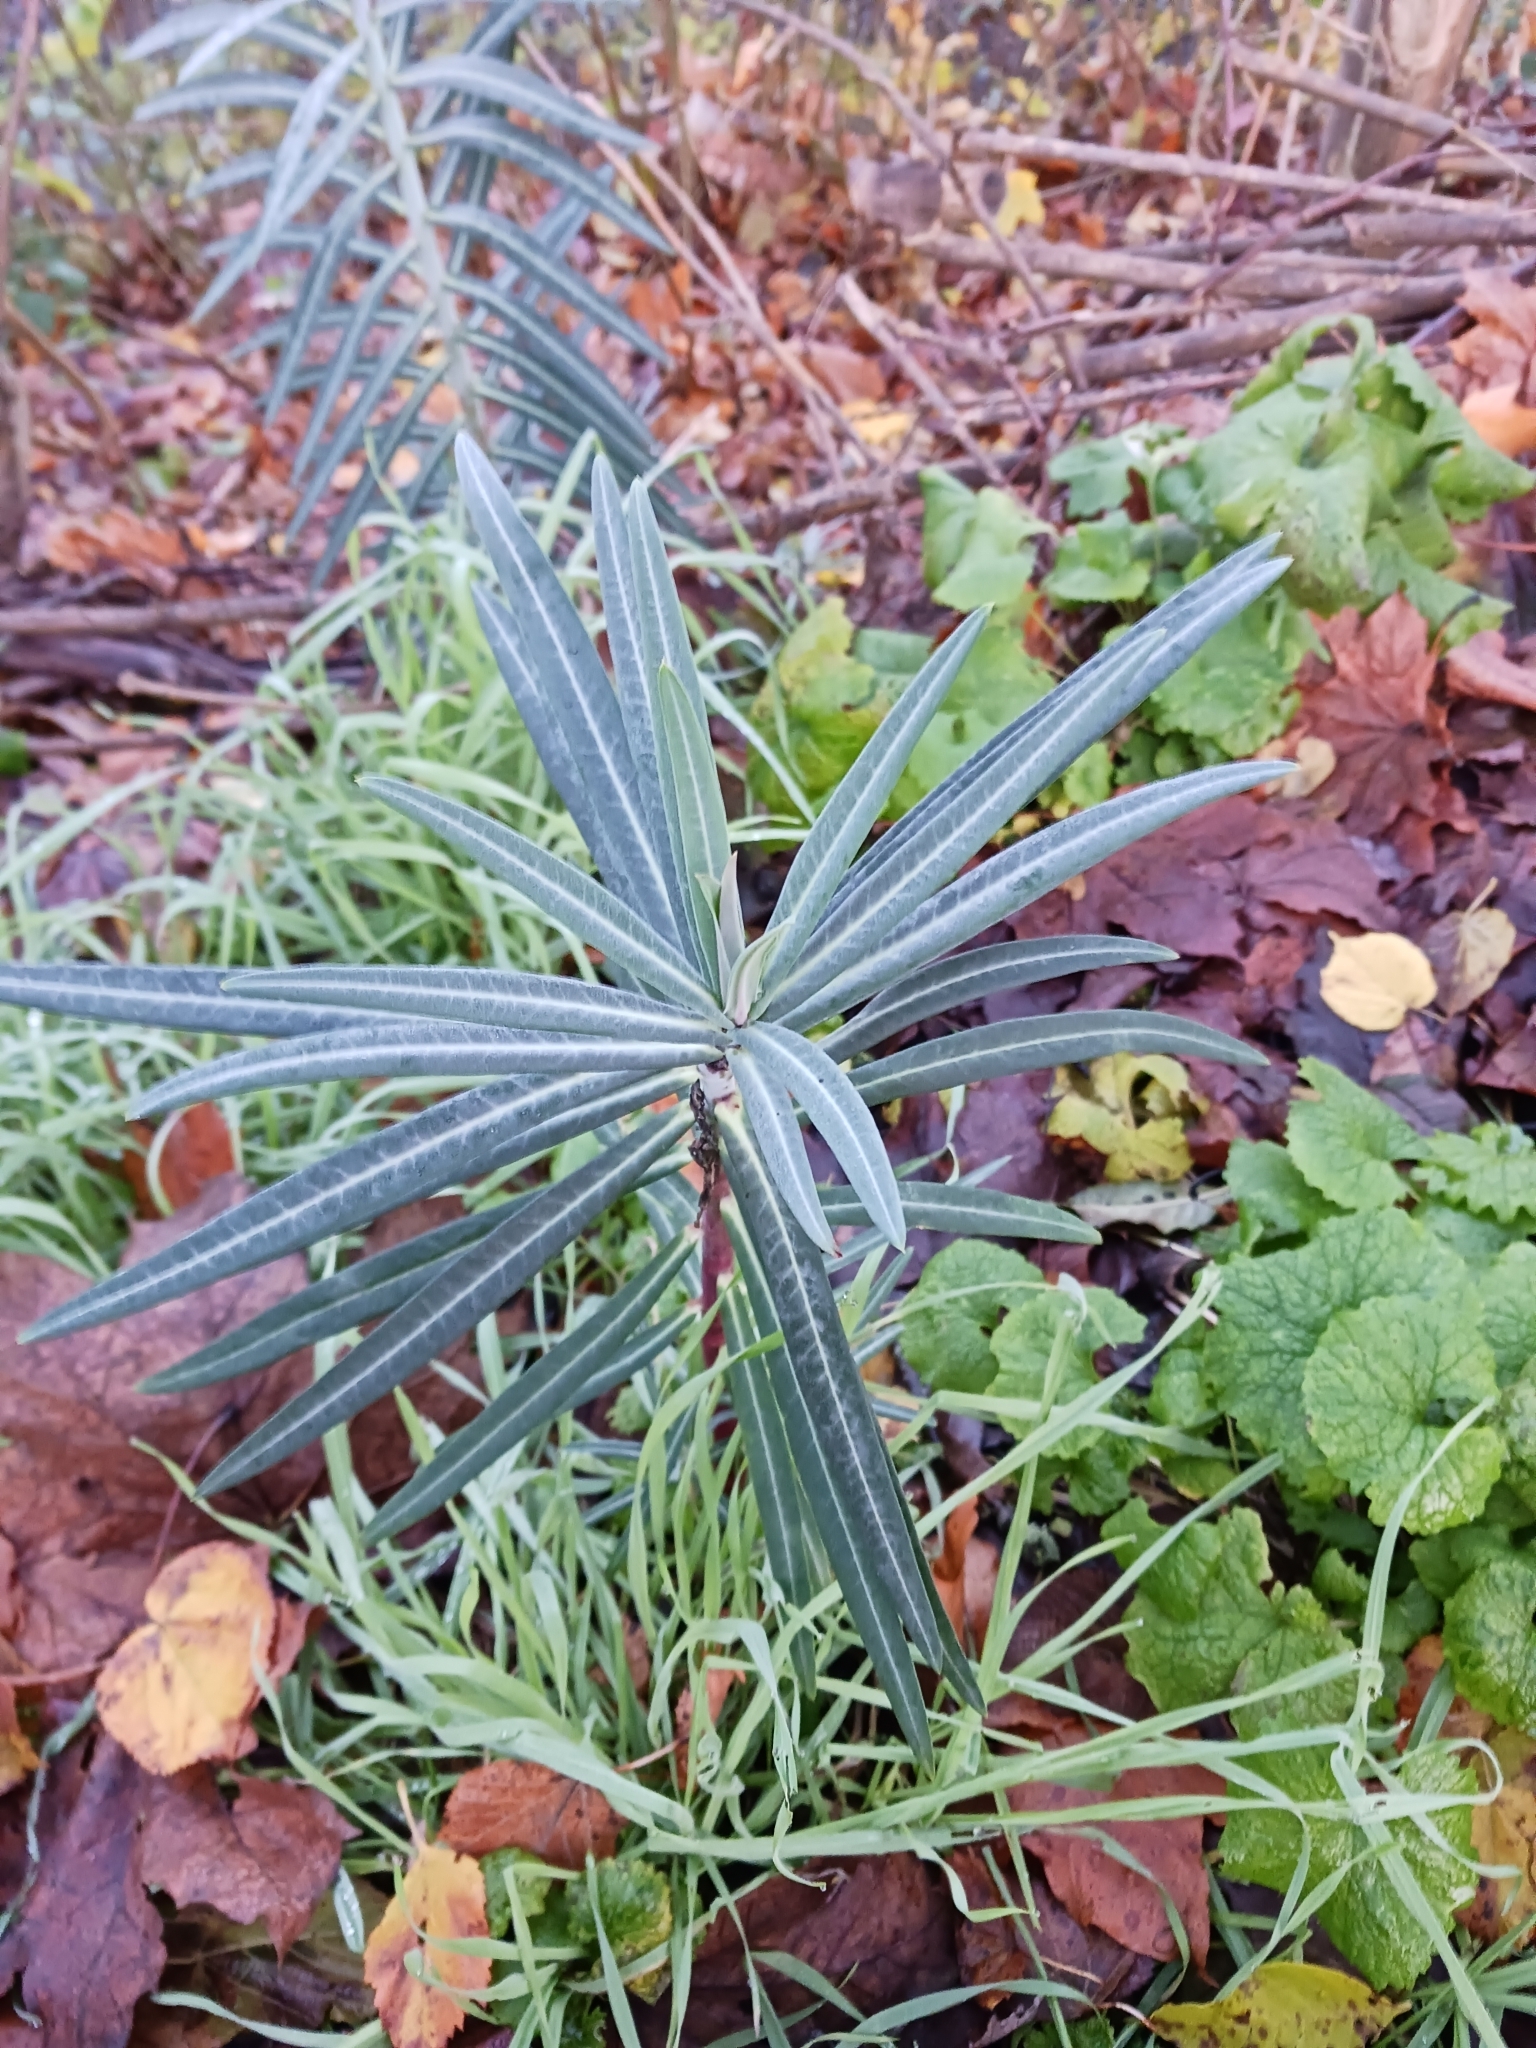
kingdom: Plantae
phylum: Tracheophyta
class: Magnoliopsida
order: Malpighiales
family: Euphorbiaceae
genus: Euphorbia
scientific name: Euphorbia lathyris
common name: Caper spurge
